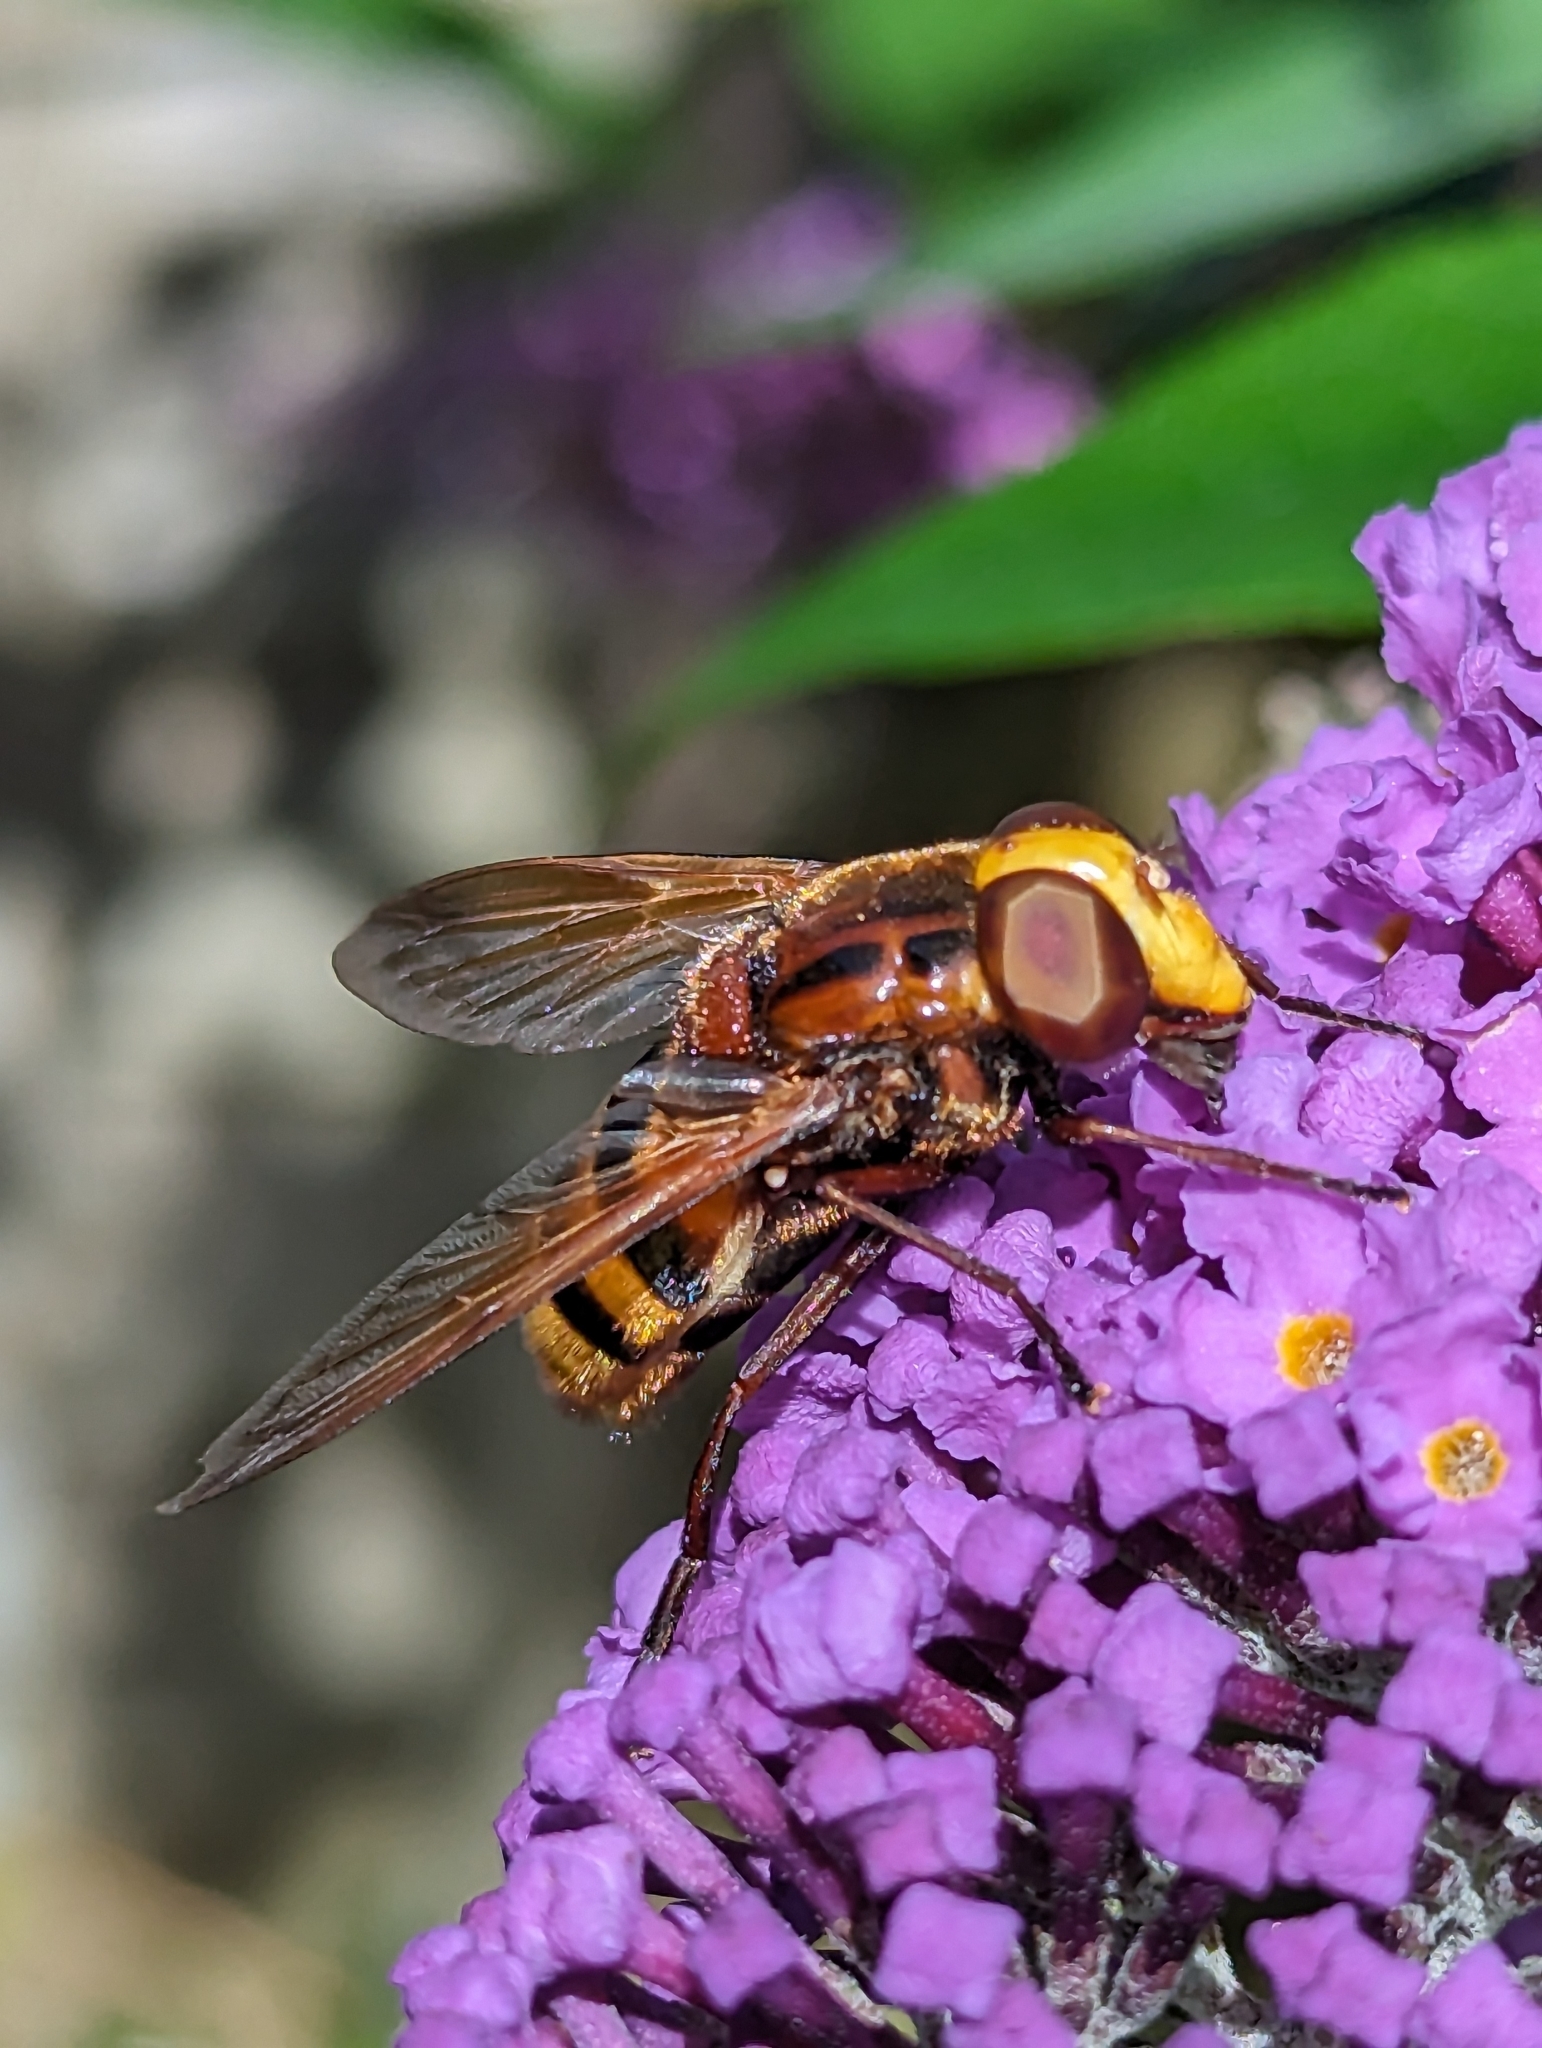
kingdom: Animalia
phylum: Arthropoda
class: Insecta
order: Diptera
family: Syrphidae
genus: Volucella
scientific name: Volucella zonaria
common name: Hornet hoverfly
